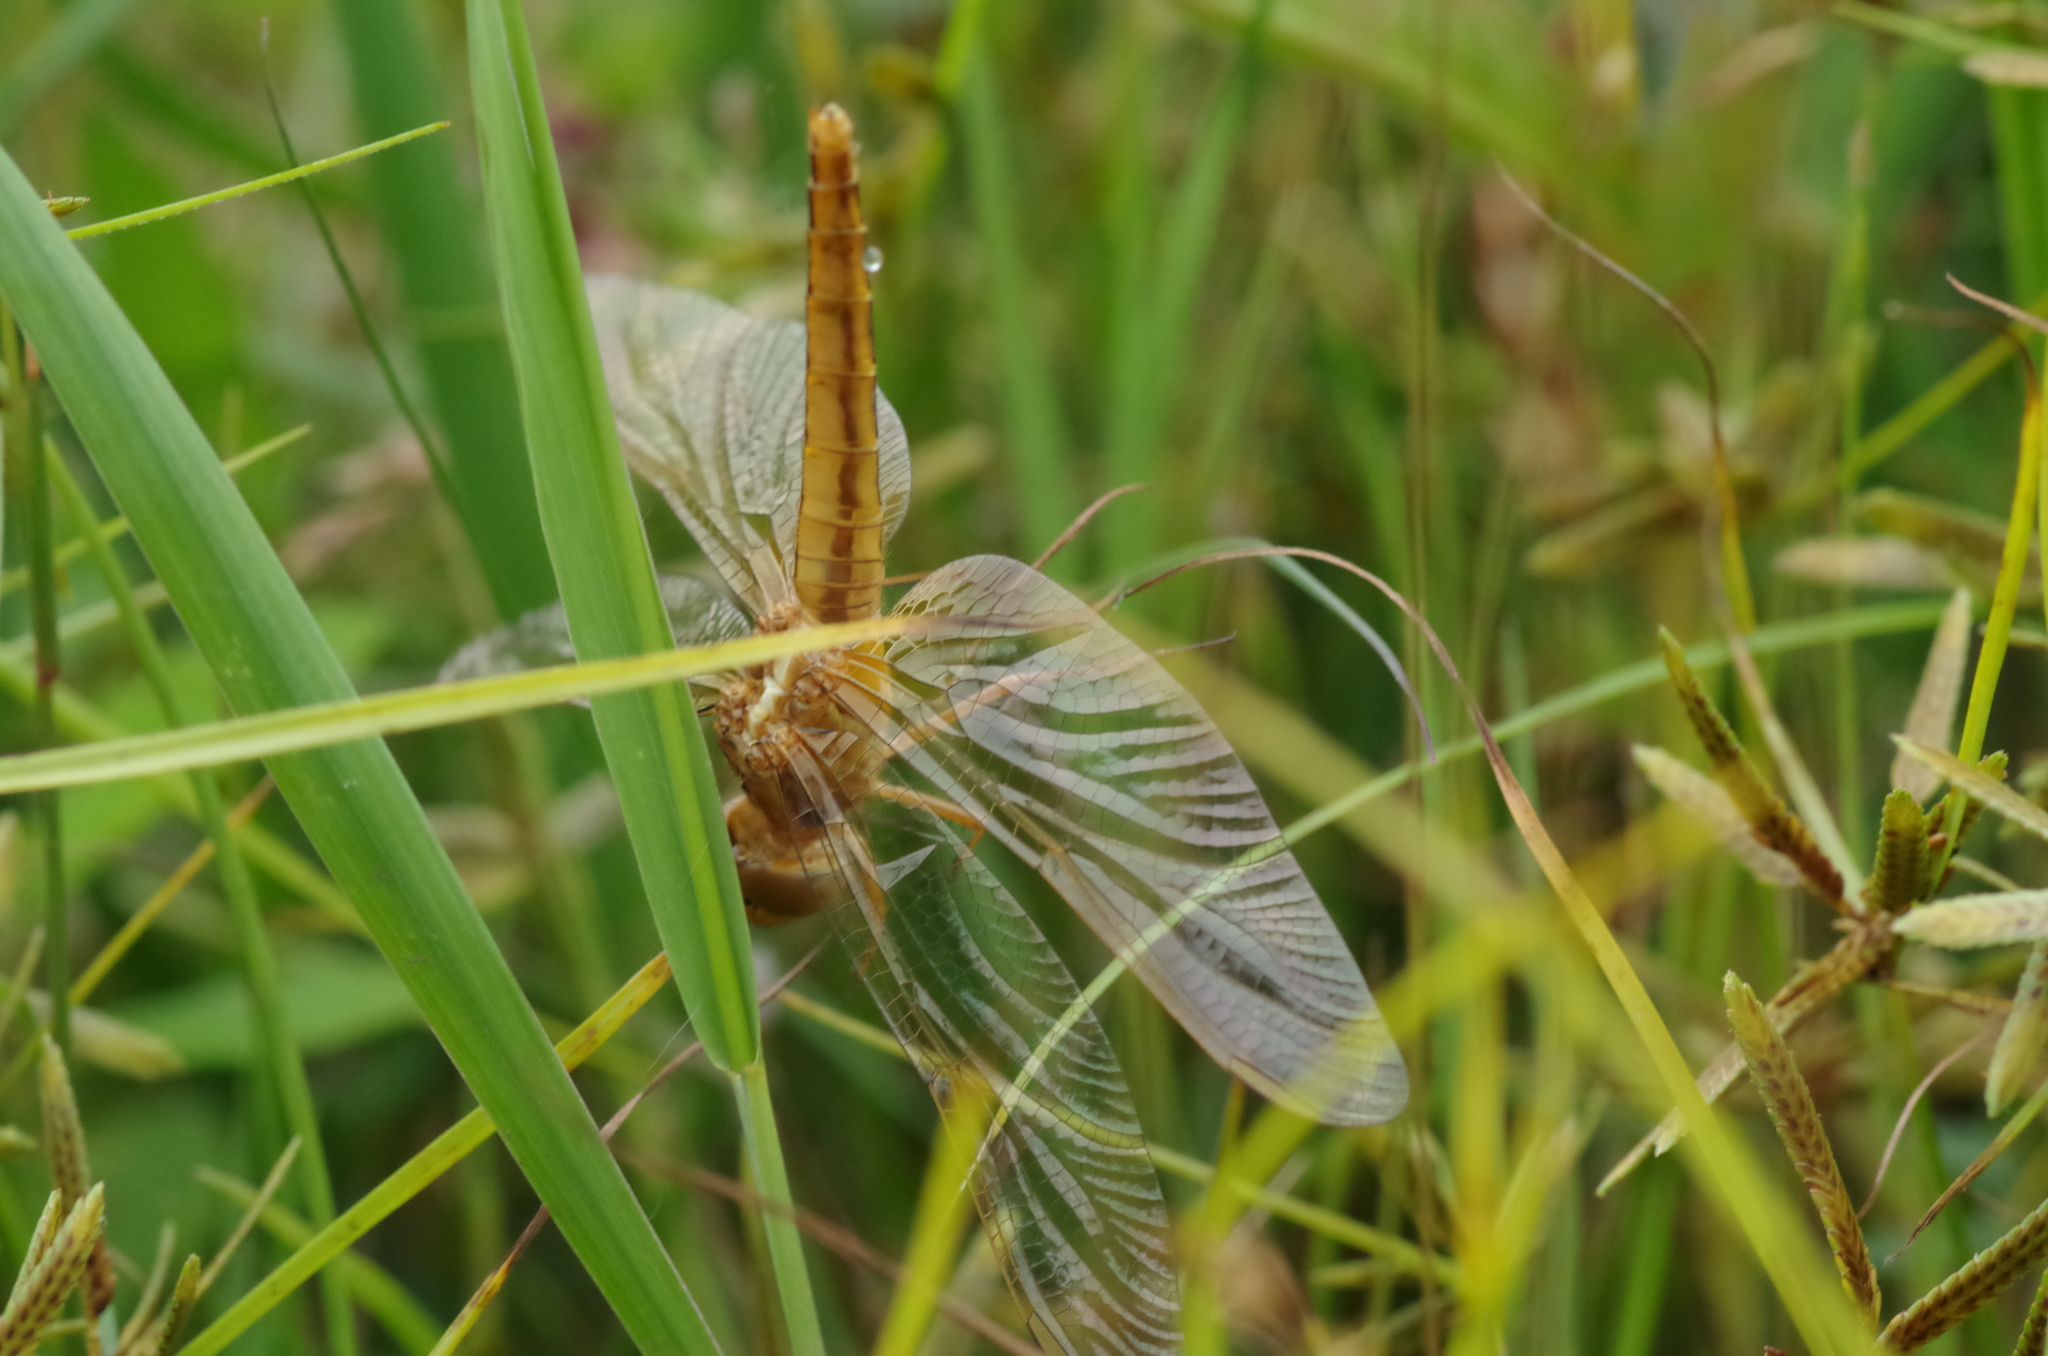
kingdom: Animalia
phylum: Arthropoda
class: Insecta
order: Odonata
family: Libellulidae
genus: Crocothemis
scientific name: Crocothemis erythraea
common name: Scarlet dragonfly
